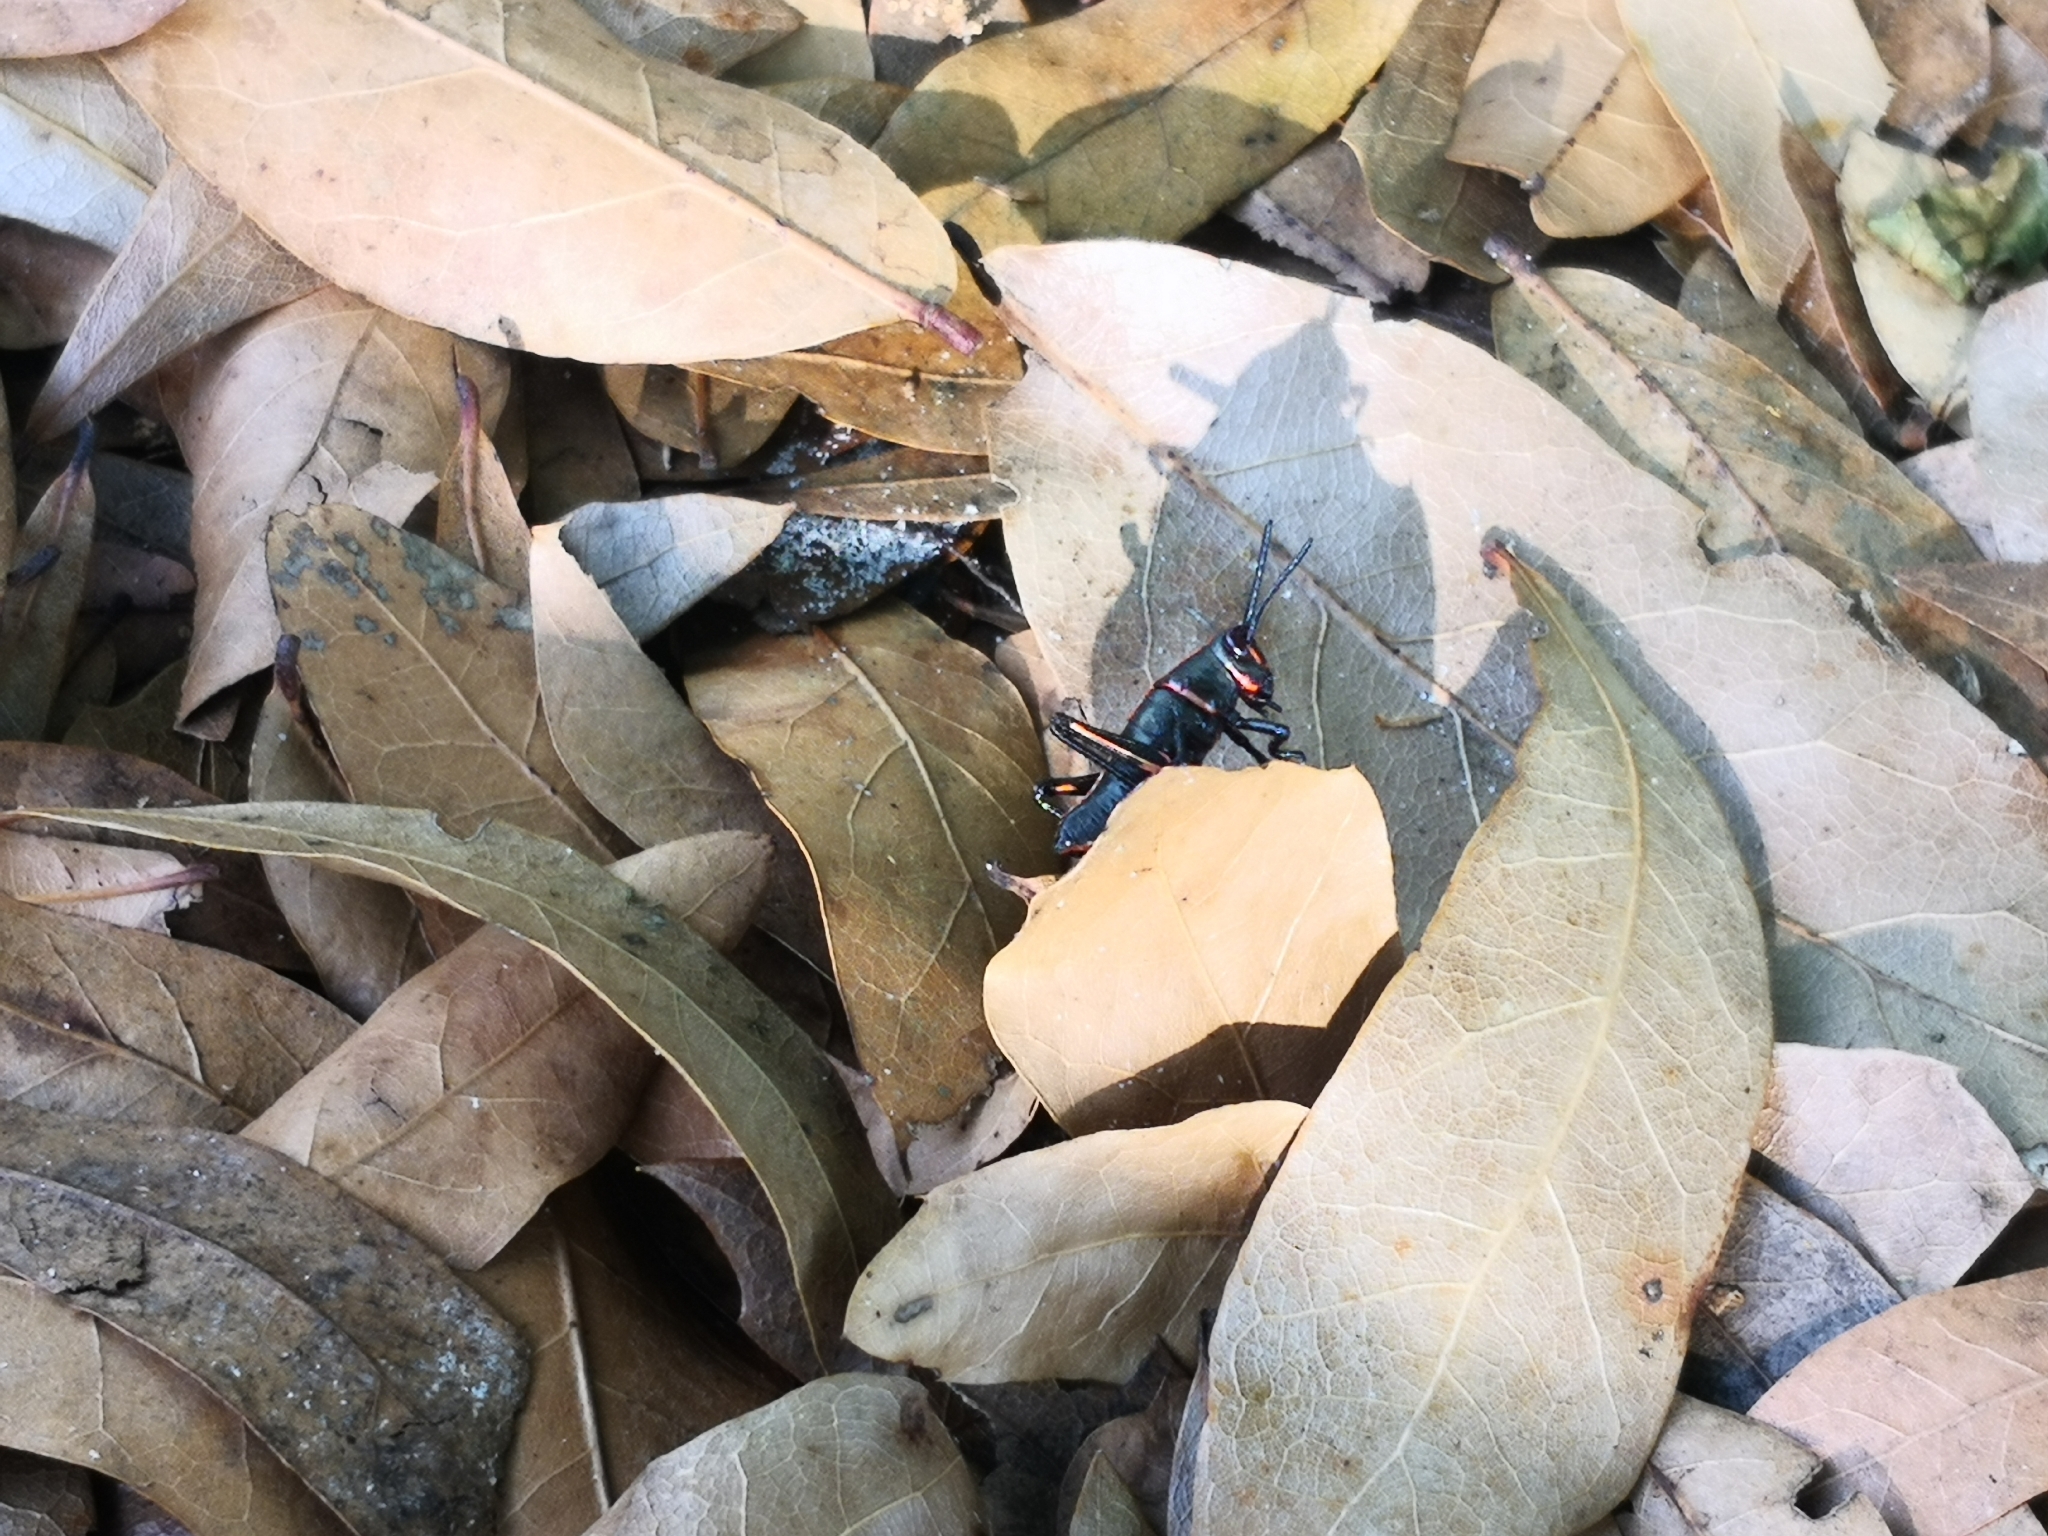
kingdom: Animalia
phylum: Arthropoda
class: Insecta
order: Orthoptera
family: Romaleidae
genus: Romalea
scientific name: Romalea microptera
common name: Eastern lubber grasshopper
